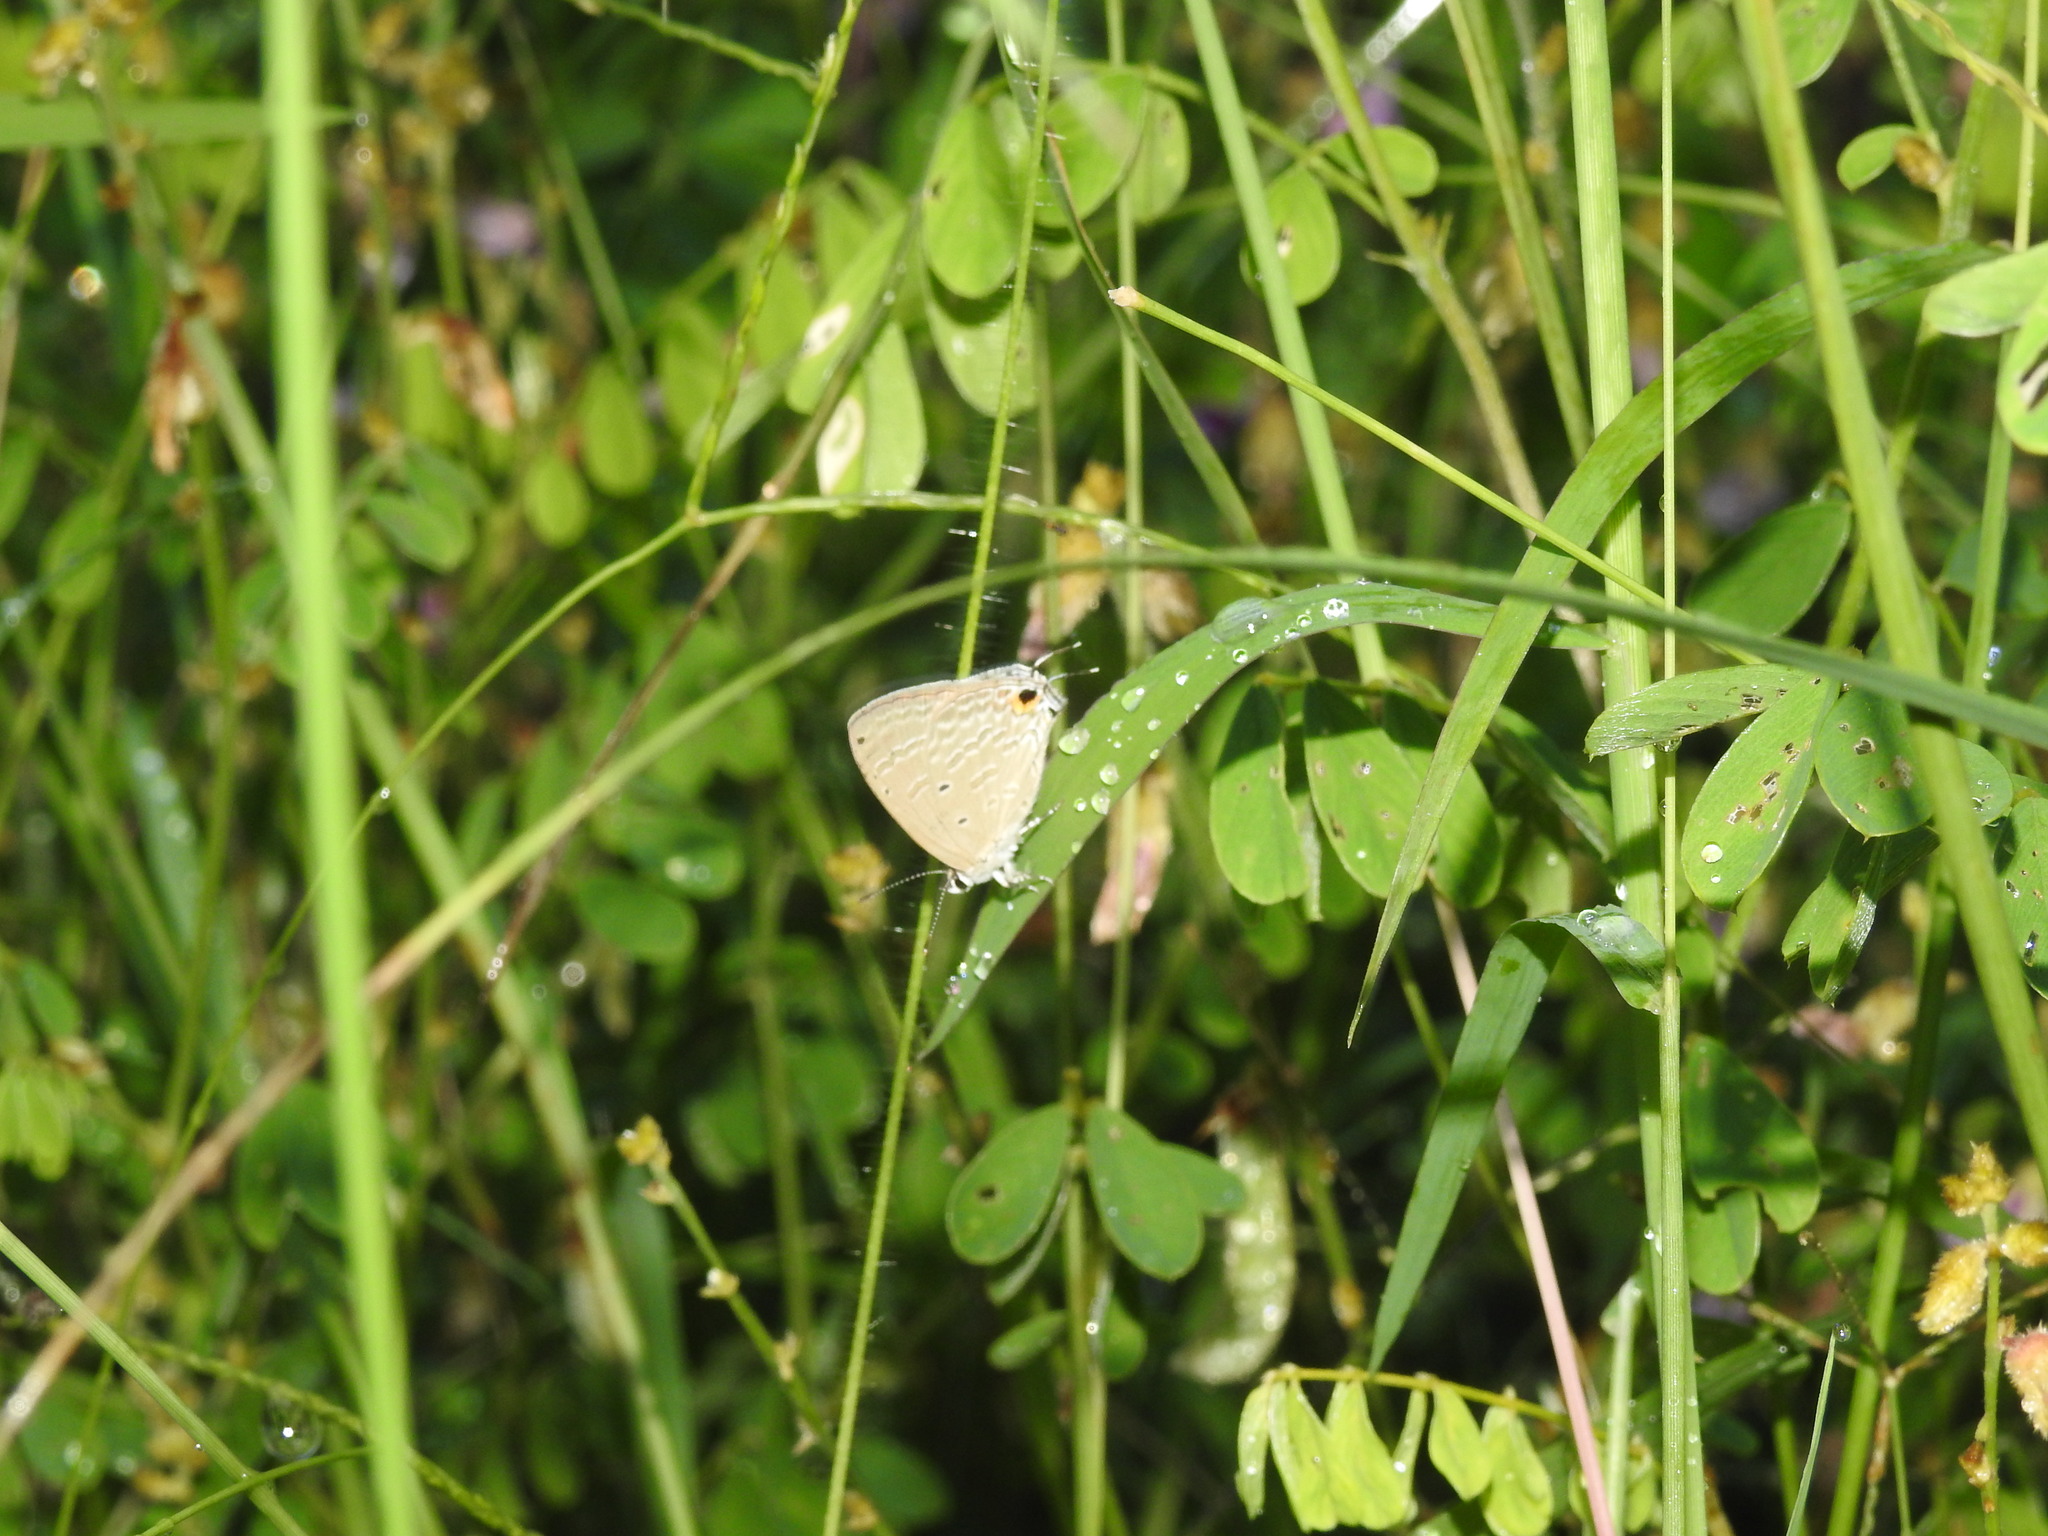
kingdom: Animalia
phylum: Arthropoda
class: Insecta
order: Lepidoptera
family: Lycaenidae
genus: Catochrysops
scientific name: Catochrysops strabo
